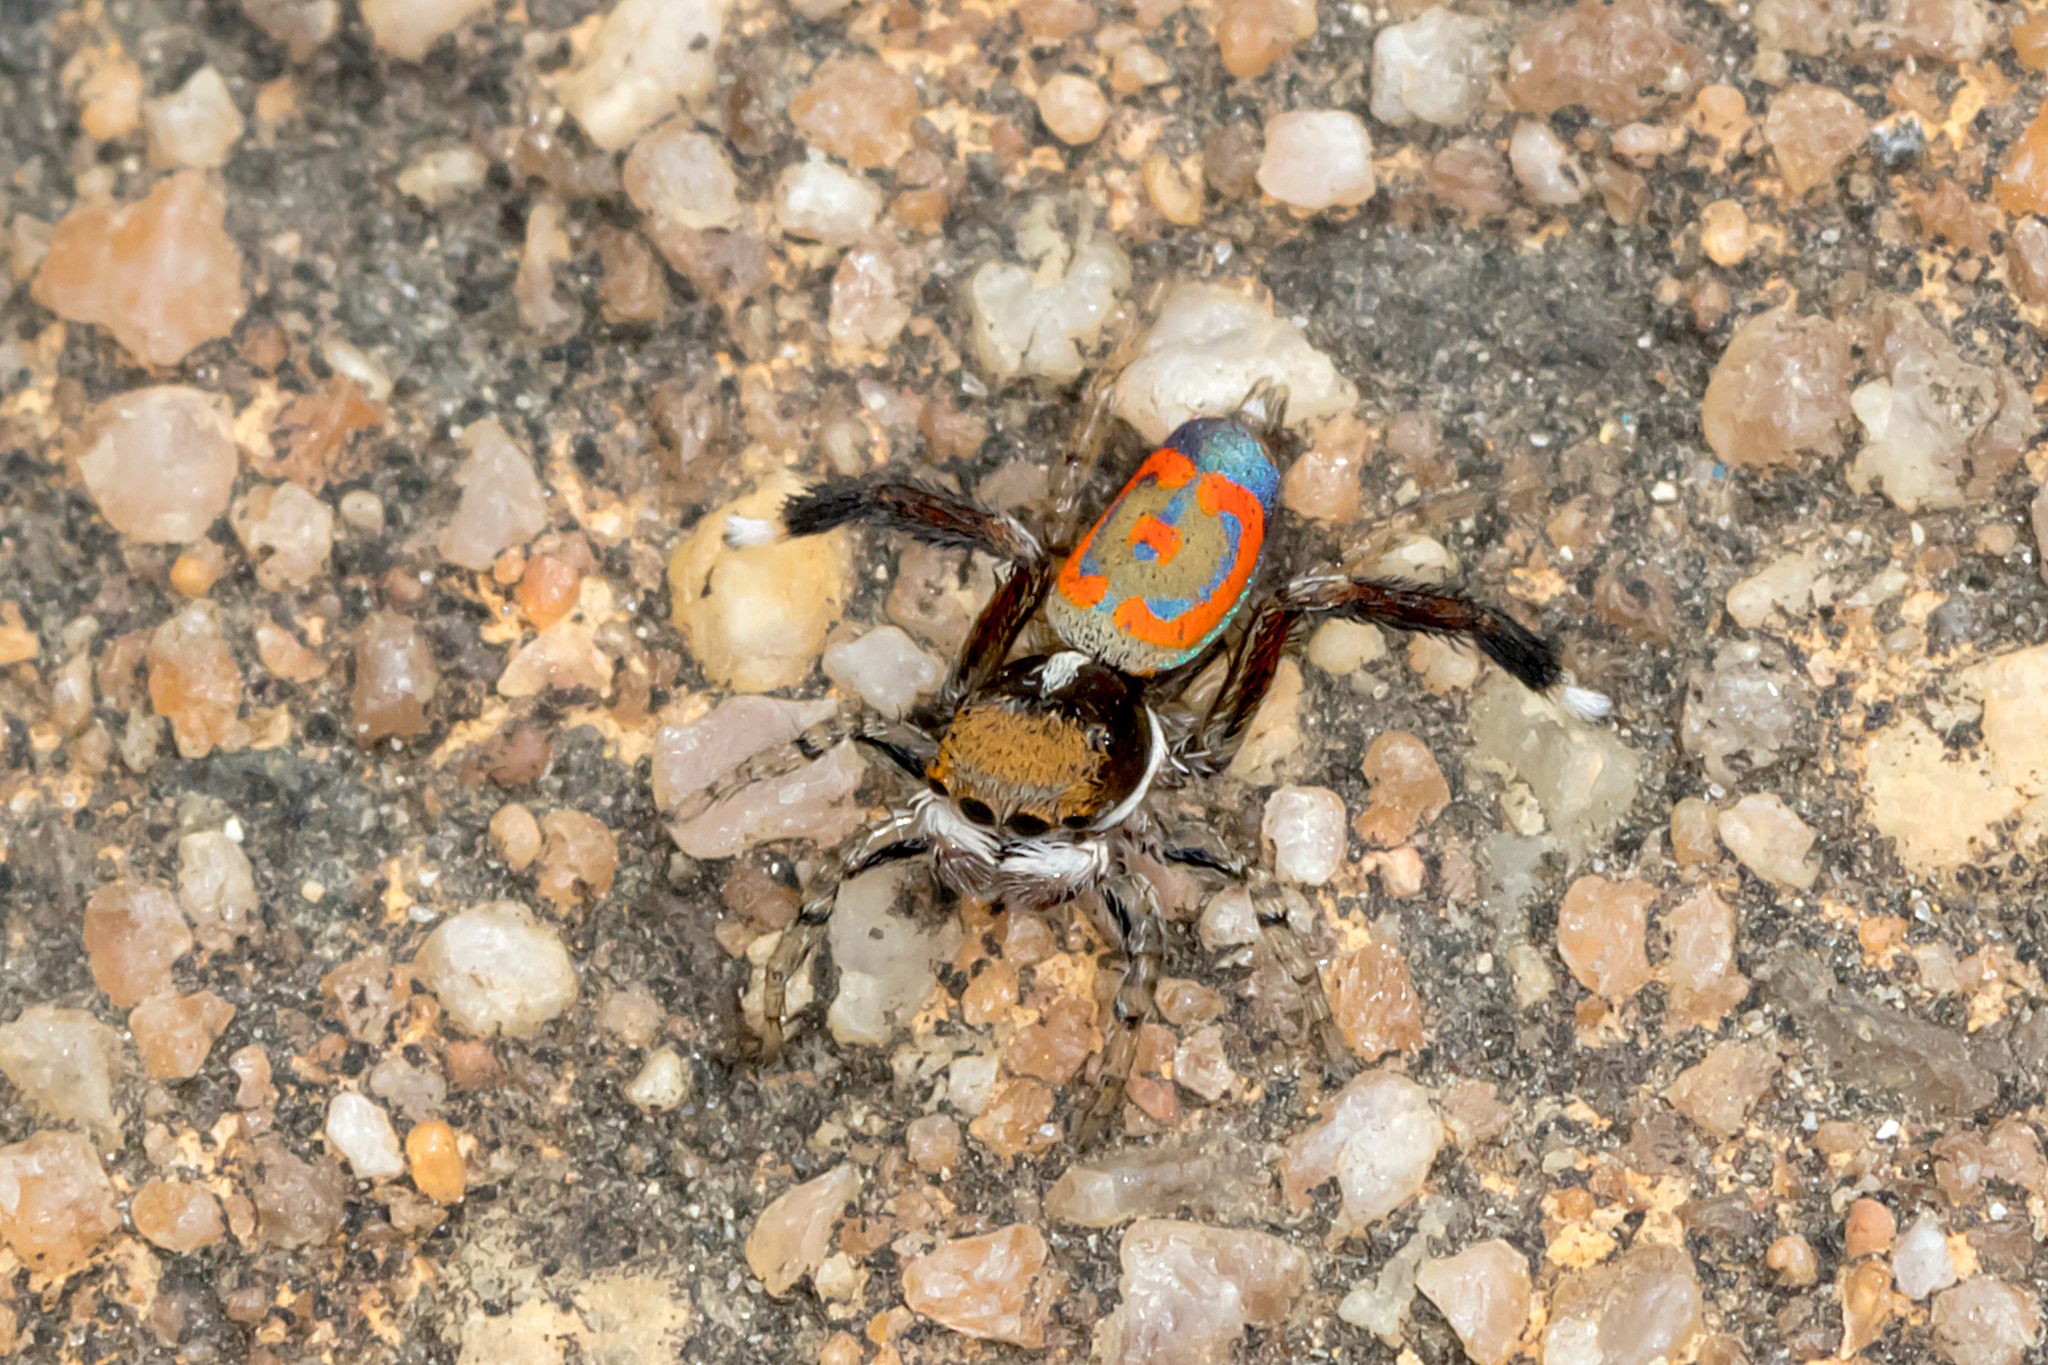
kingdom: Animalia
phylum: Arthropoda
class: Arachnida
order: Araneae
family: Salticidae
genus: Maratus
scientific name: Maratus pavonis
